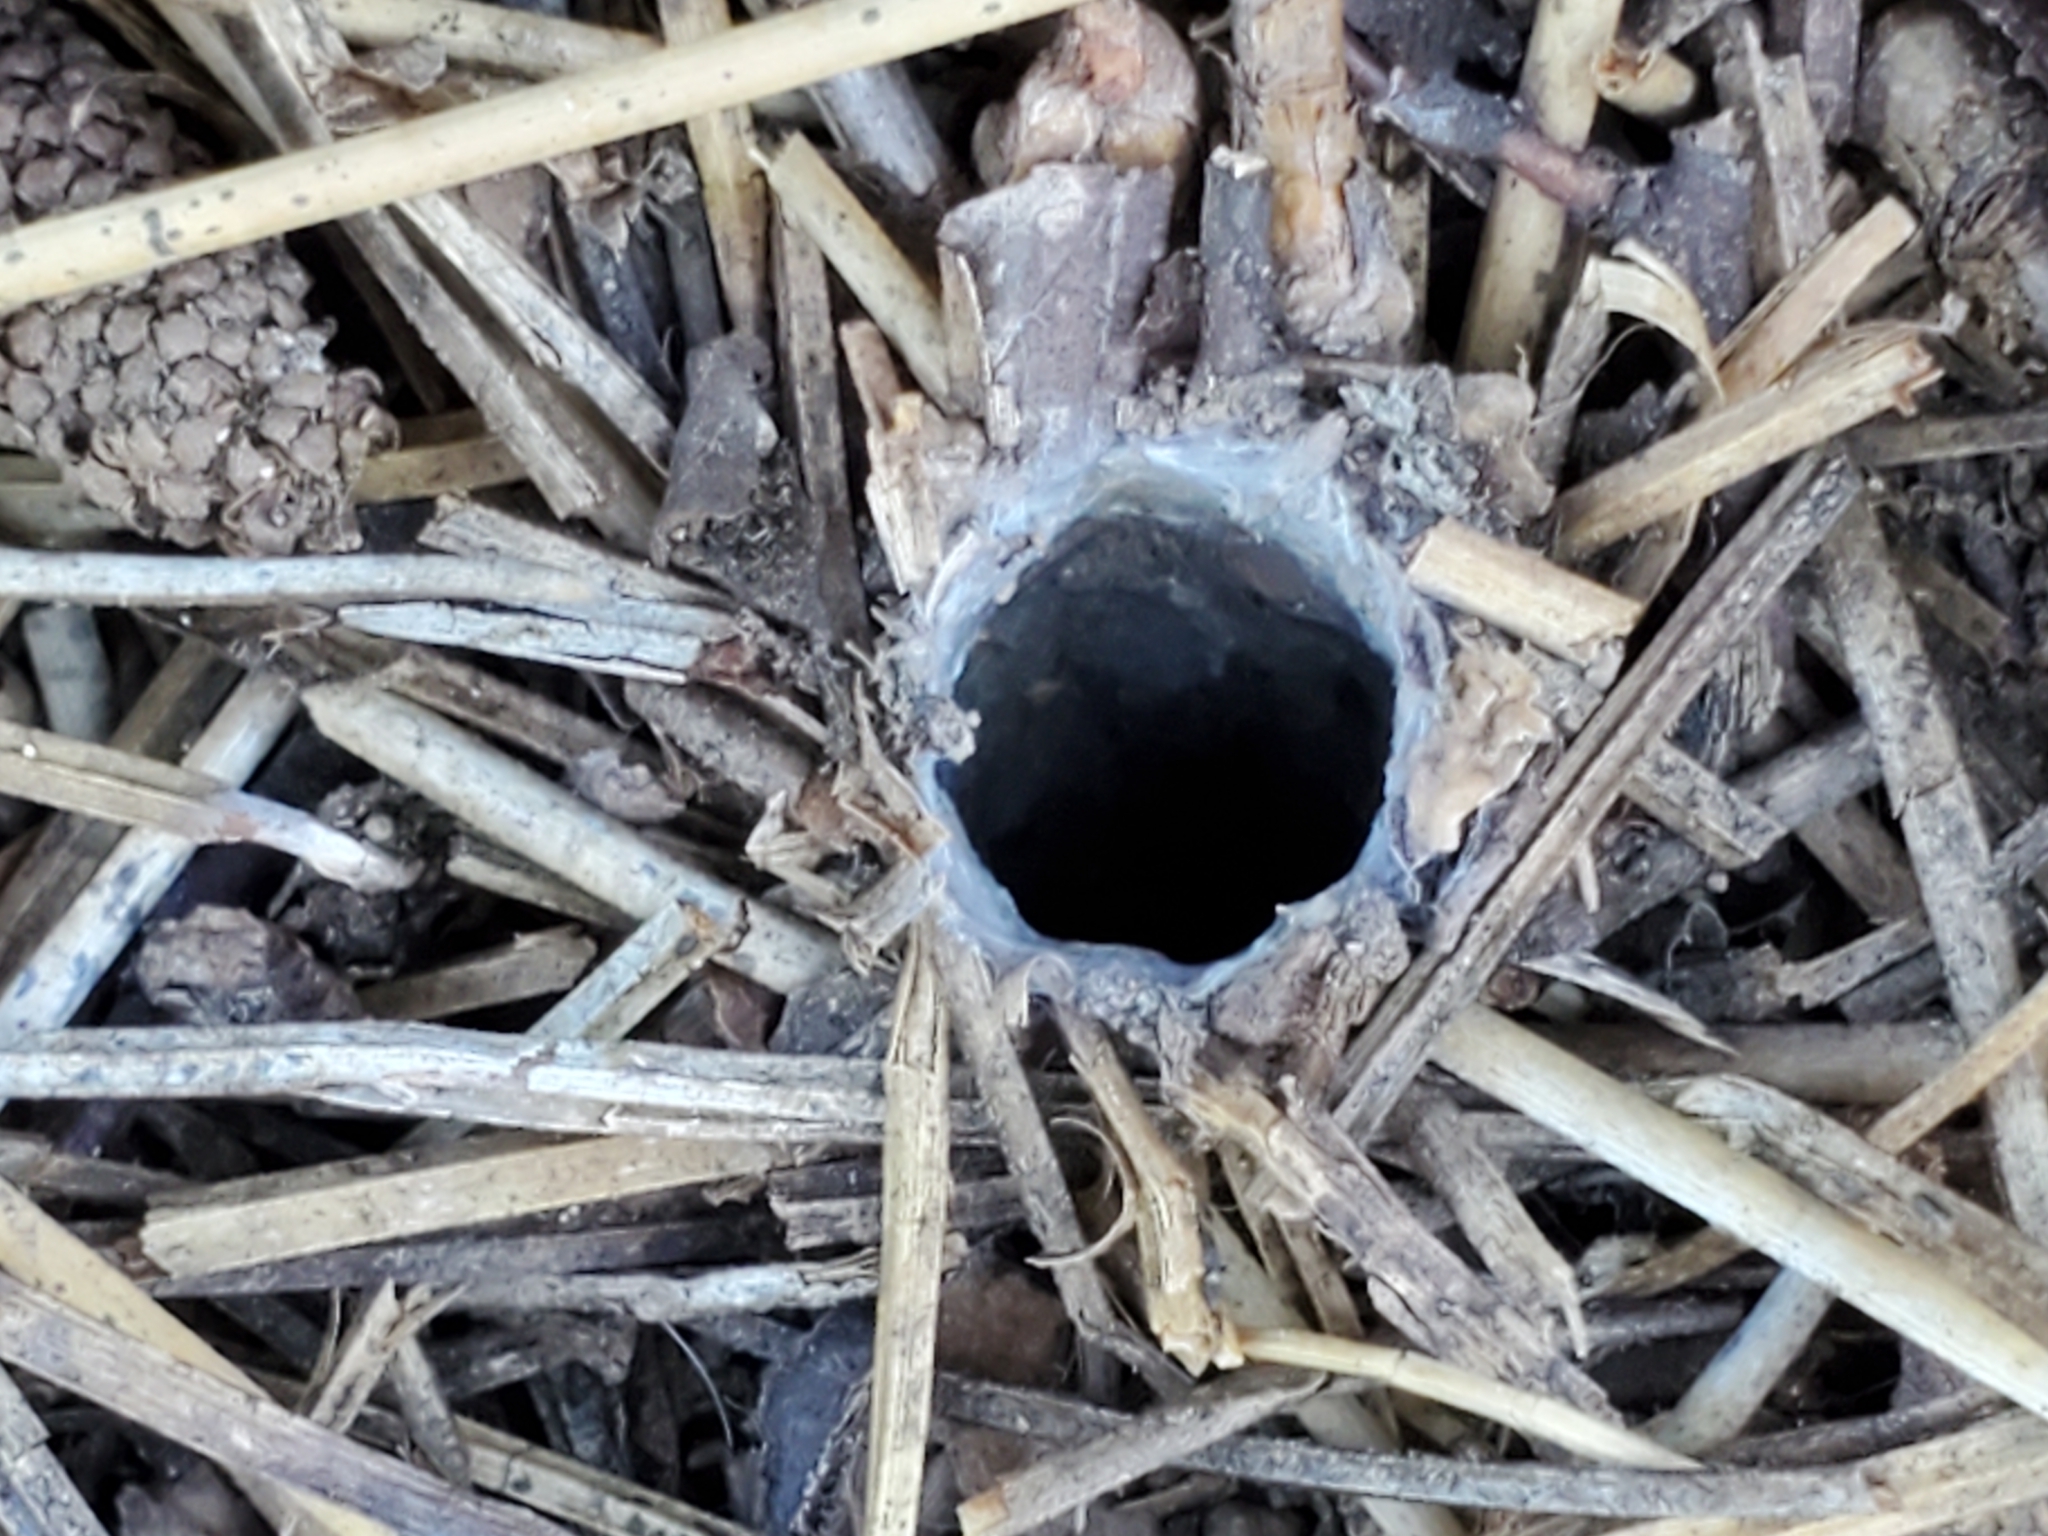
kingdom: Animalia
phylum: Arthropoda
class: Arachnida
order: Araneae
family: Antrodiaetidae
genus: Atypoides
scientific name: Atypoides riversi
